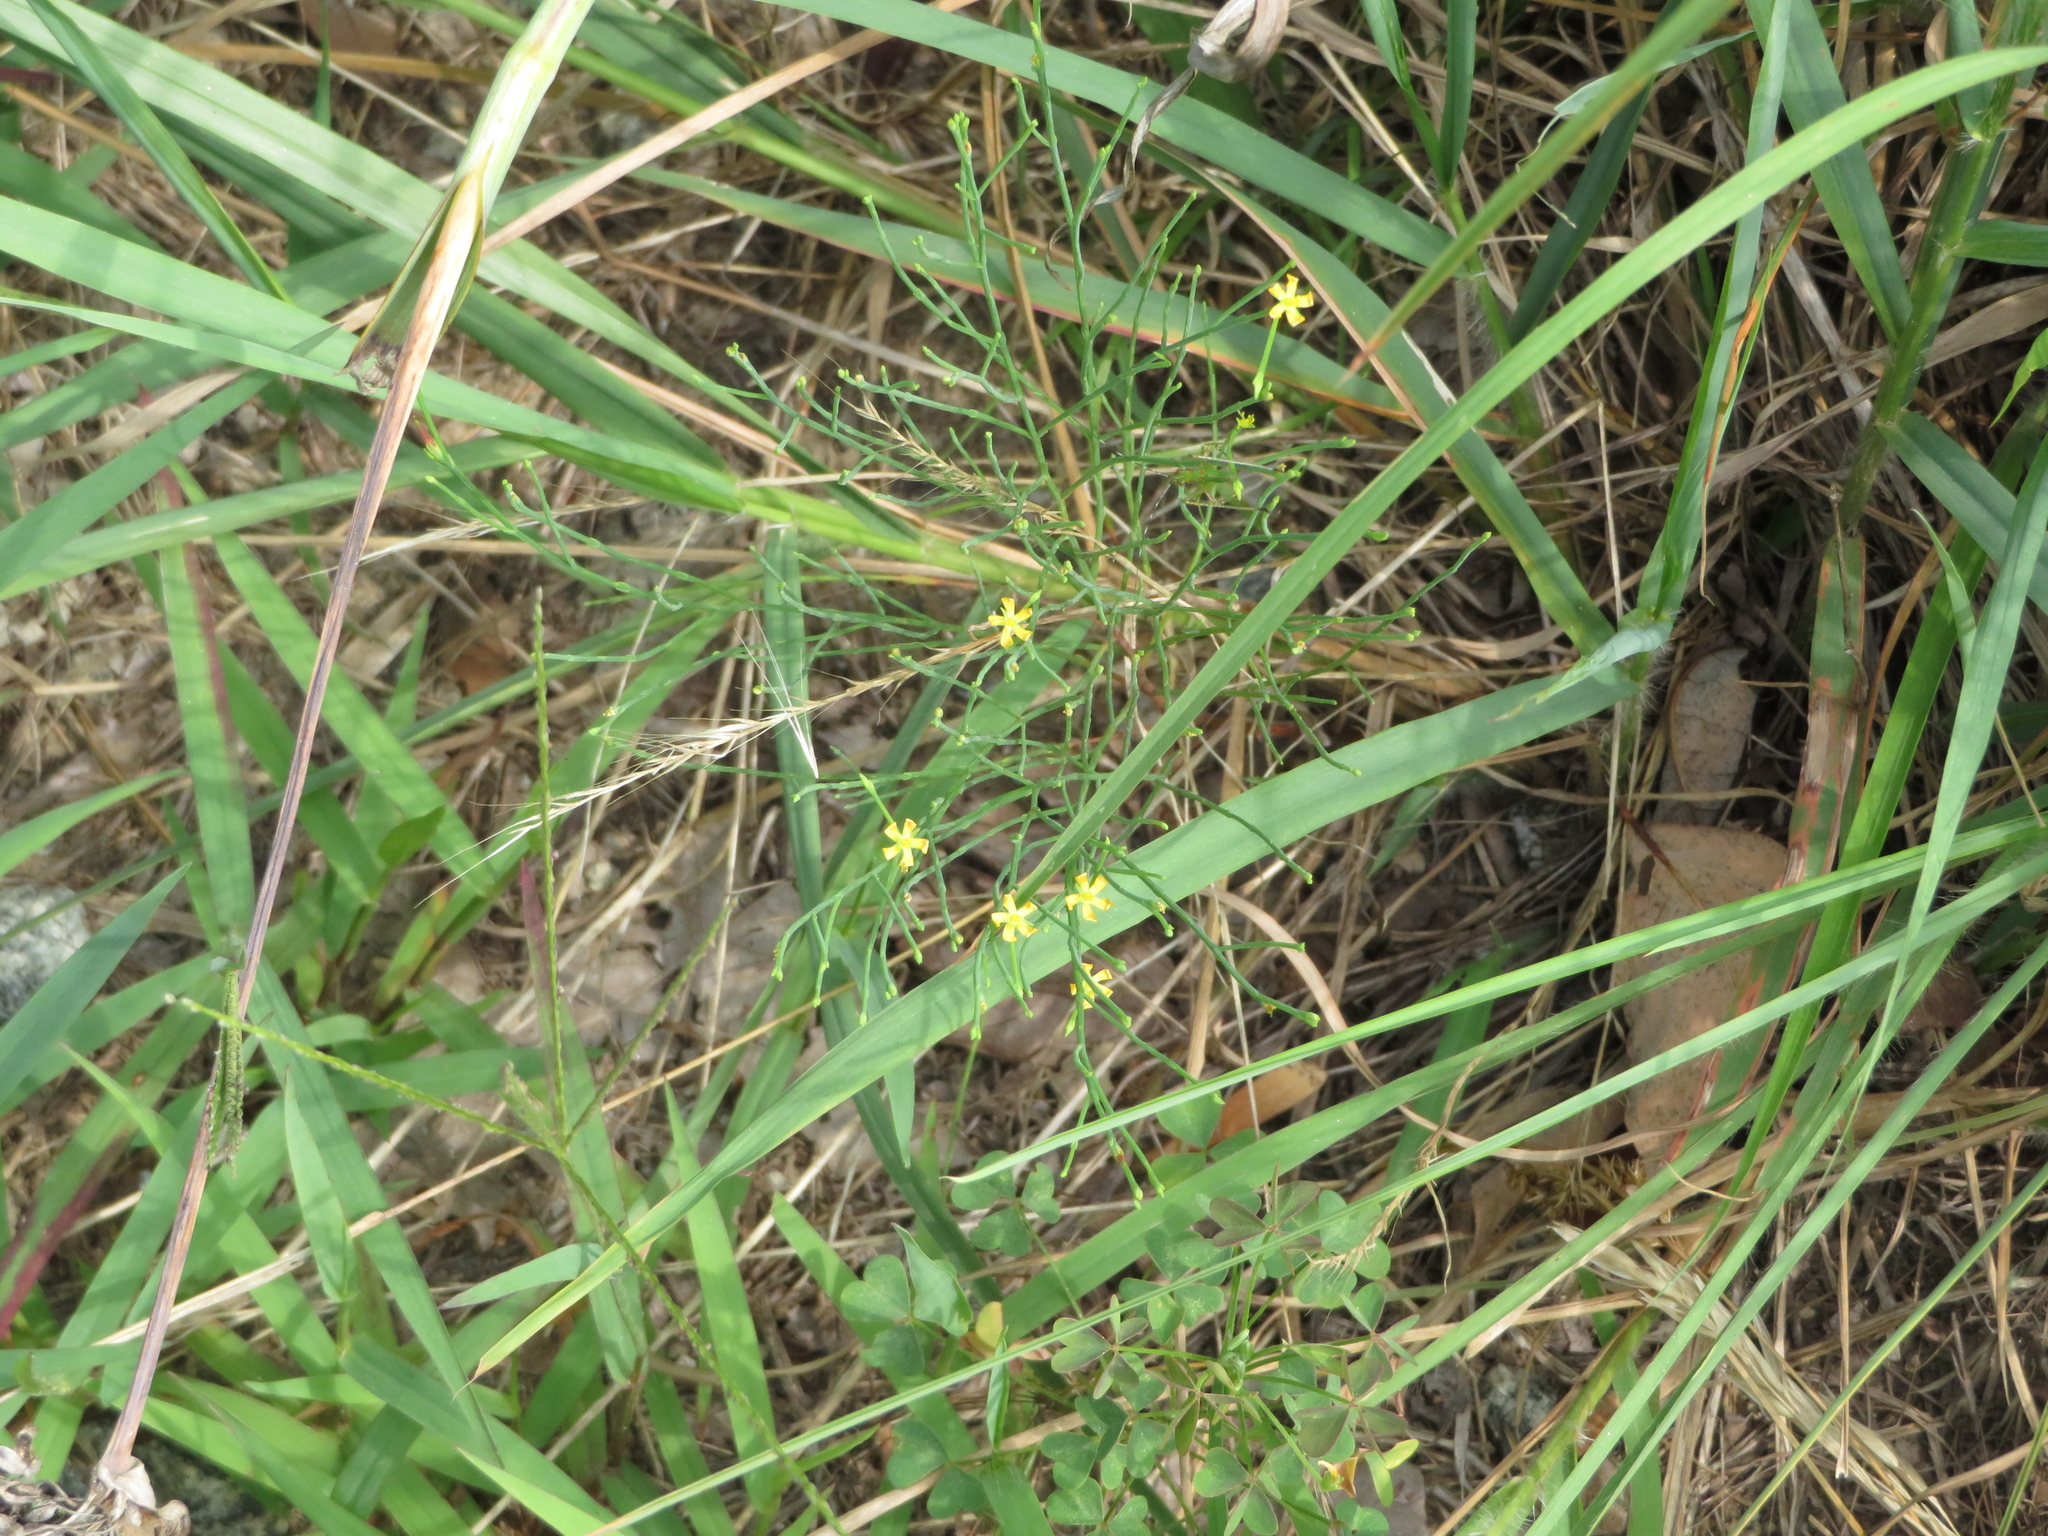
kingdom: Plantae
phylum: Tracheophyta
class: Magnoliopsida
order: Malpighiales
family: Hypericaceae
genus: Hypericum
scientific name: Hypericum gentianoides
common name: Gentian-leaved st. john's-wort
